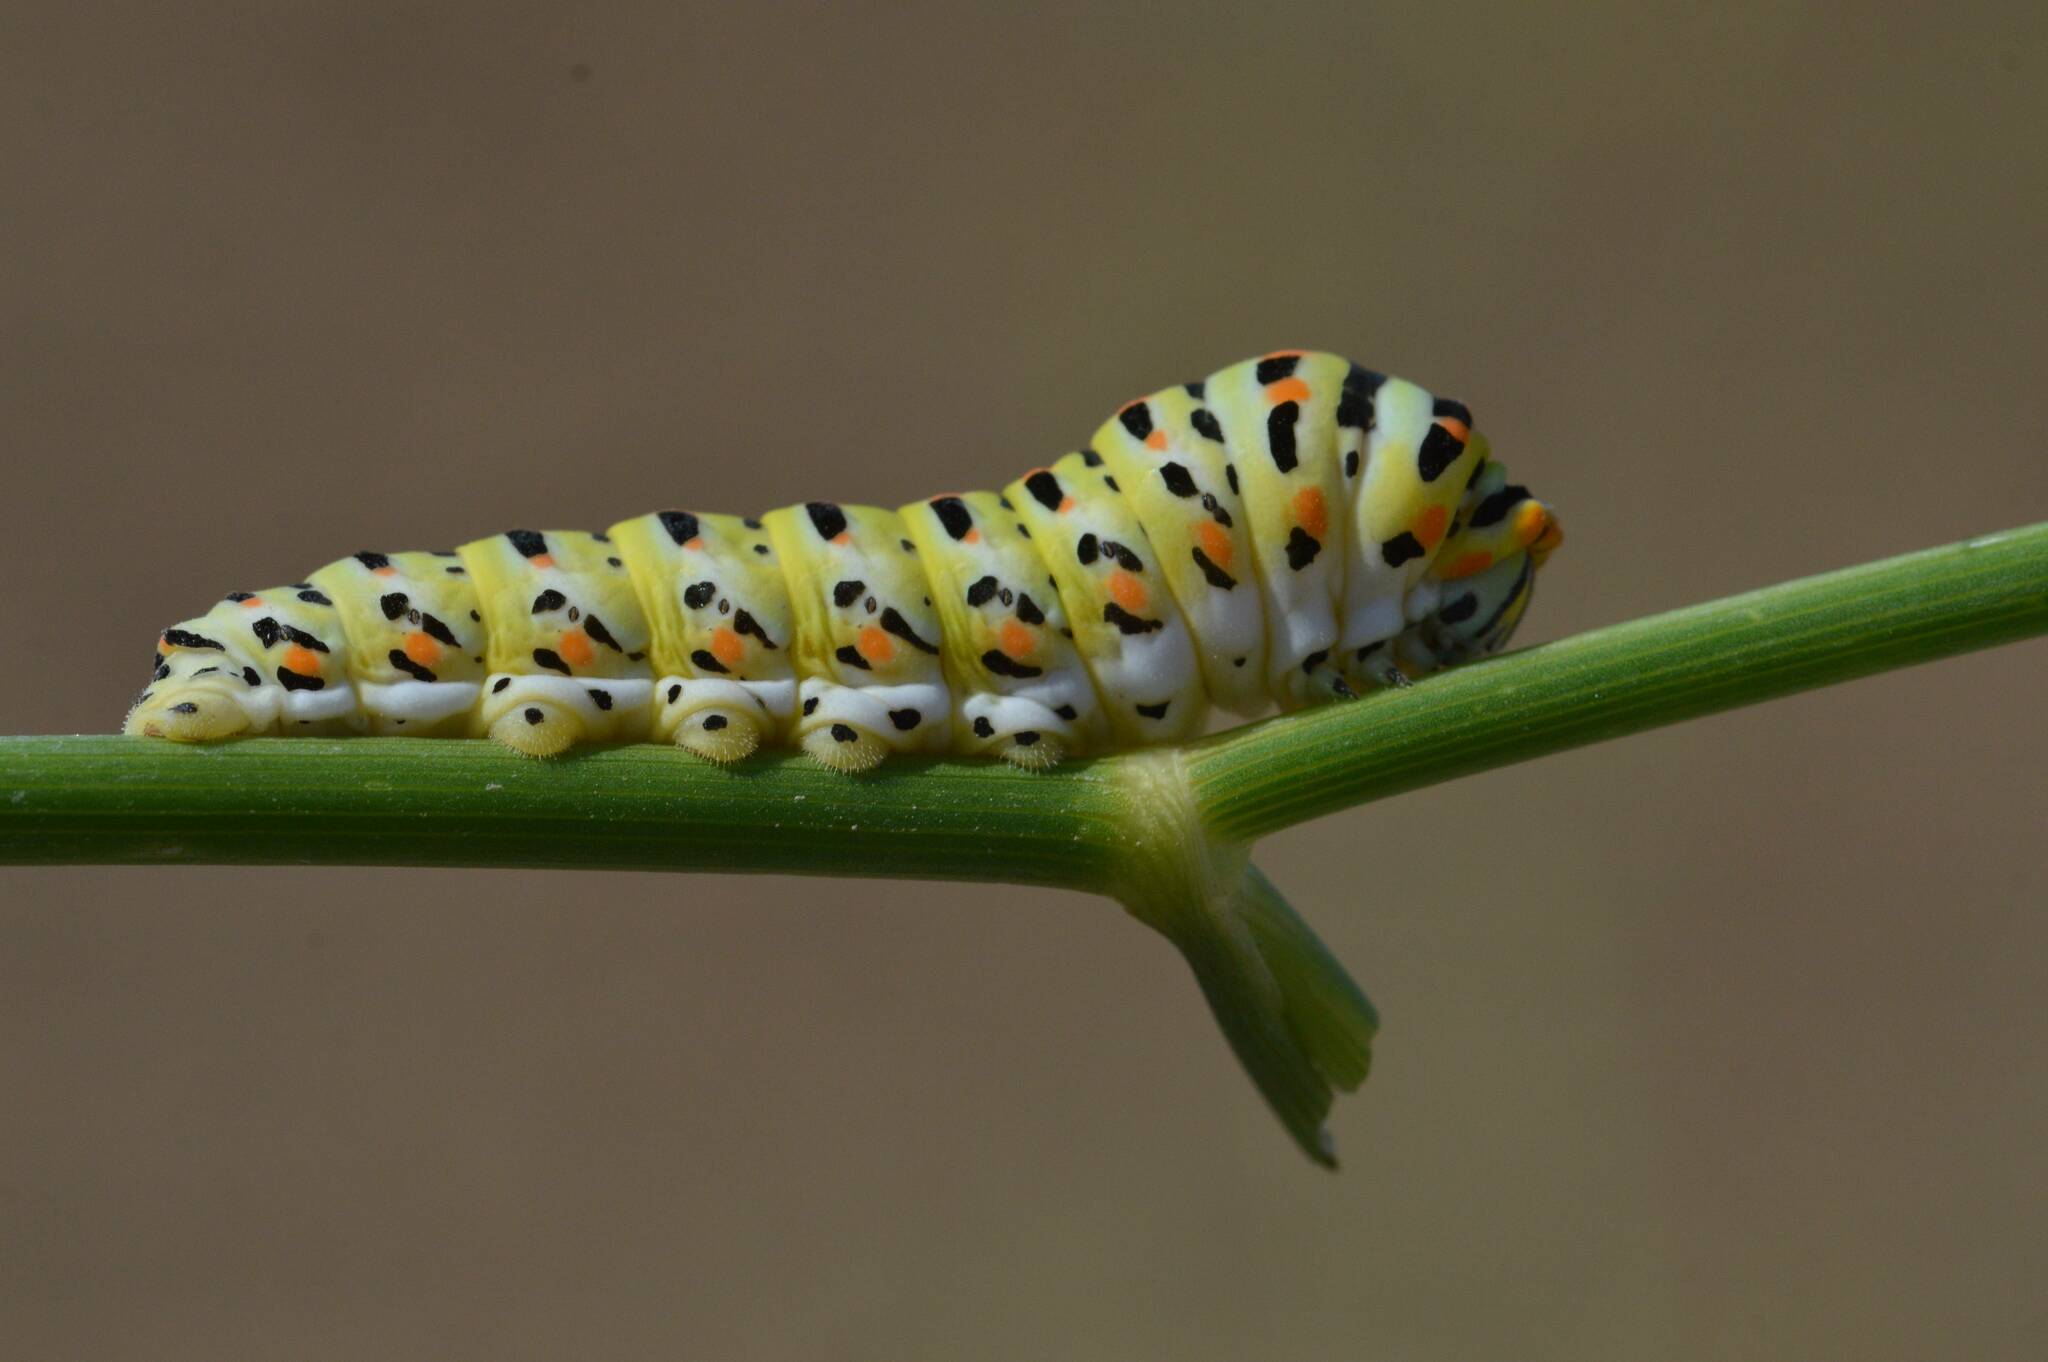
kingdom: Animalia
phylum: Arthropoda
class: Insecta
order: Lepidoptera
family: Papilionidae
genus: Papilio
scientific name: Papilio machaon
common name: Swallowtail
